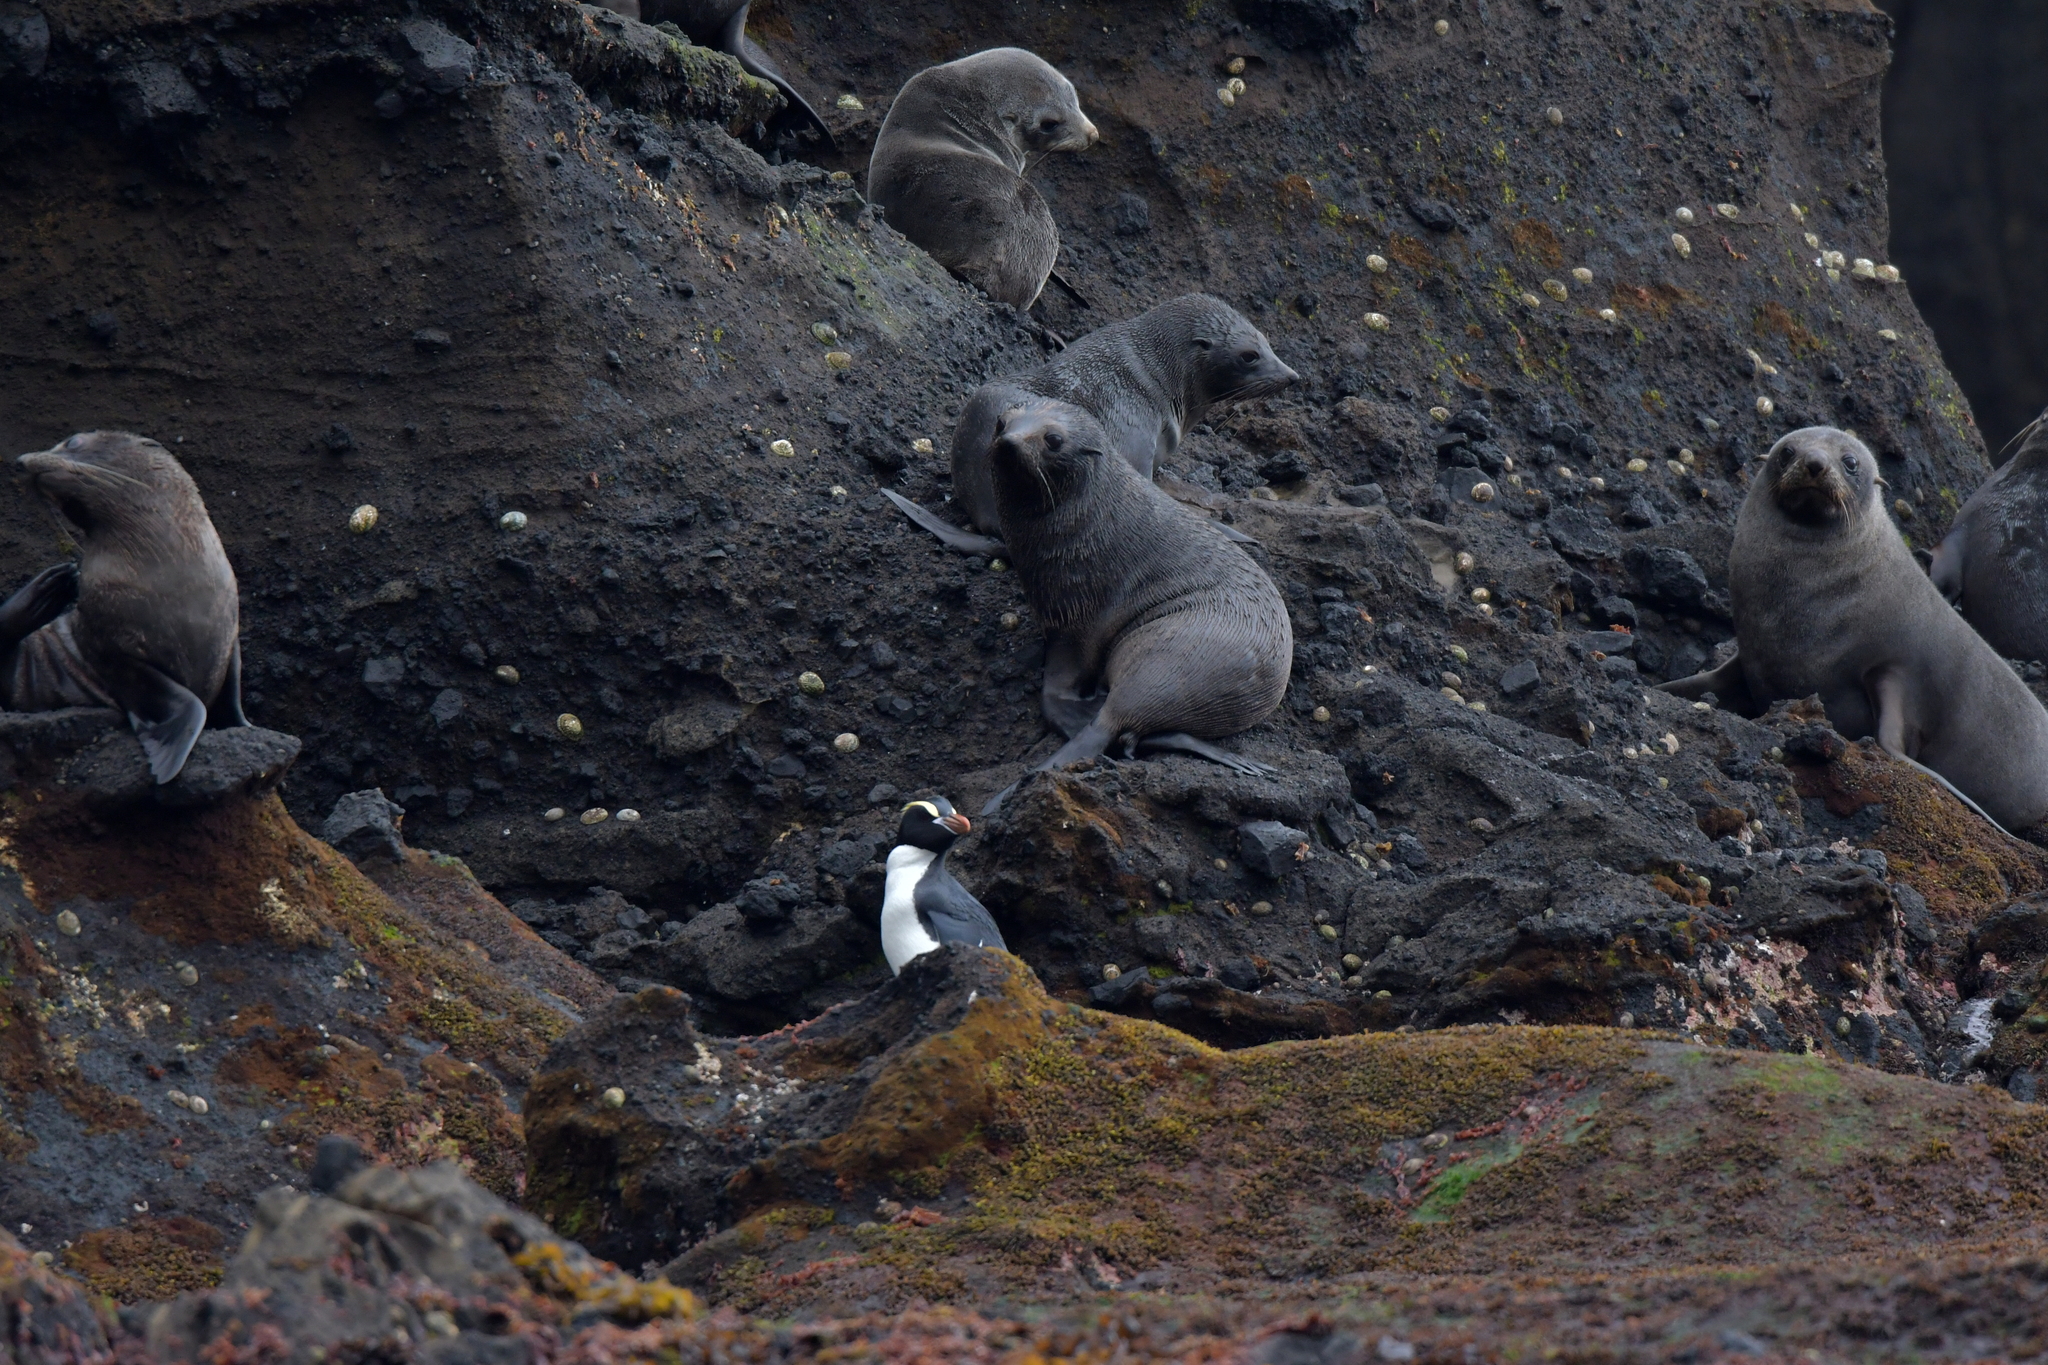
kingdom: Animalia
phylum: Chordata
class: Aves
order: Sphenisciformes
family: Spheniscidae
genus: Eudyptes
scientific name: Eudyptes sclateri
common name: Erect-crested penguin
